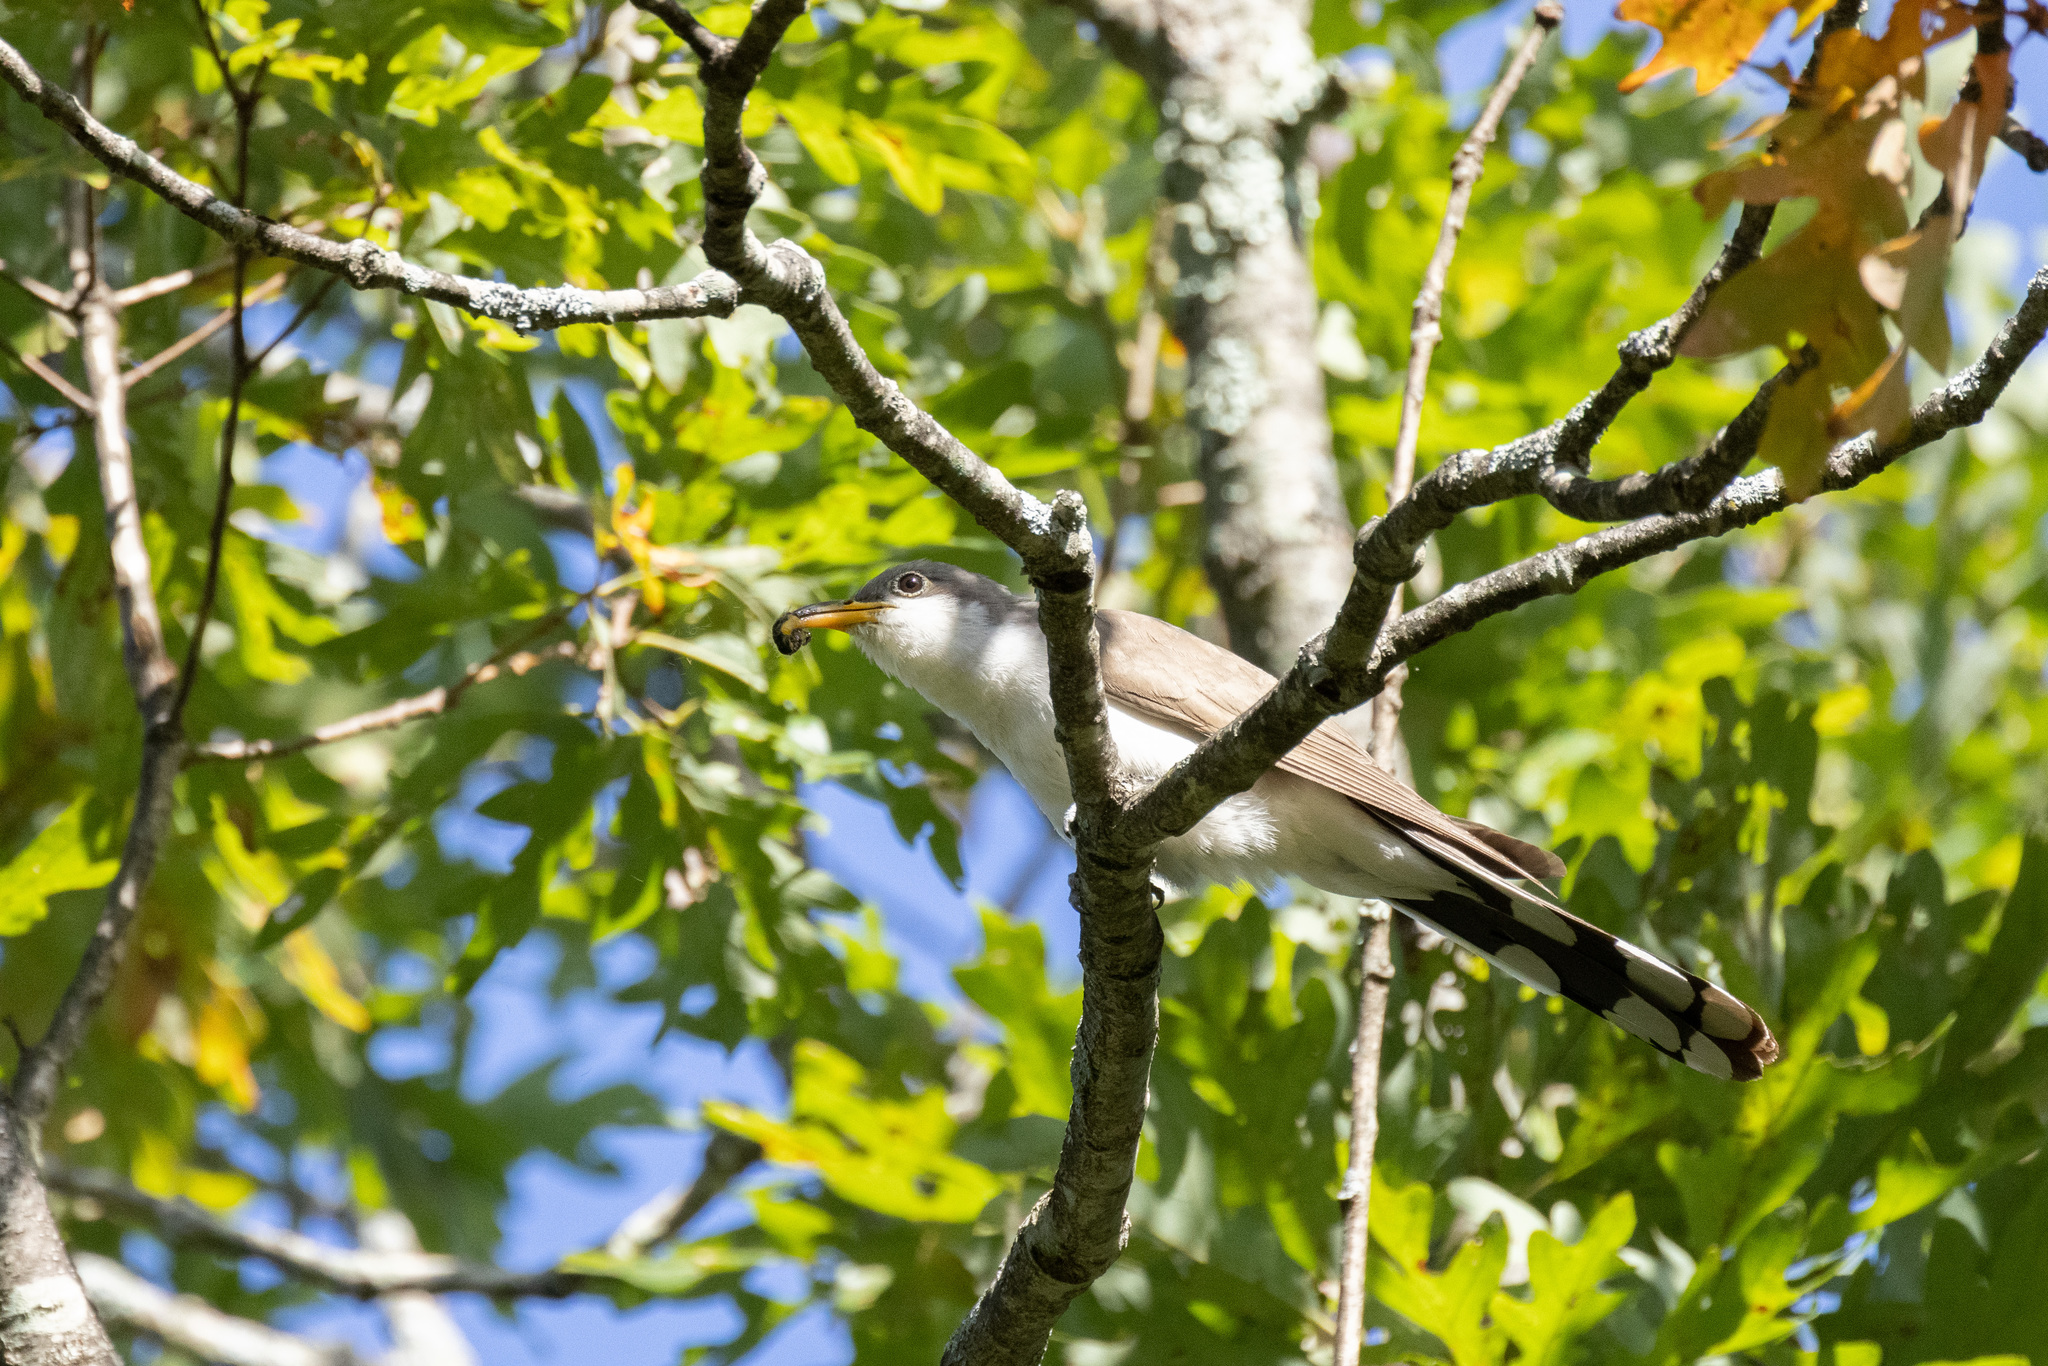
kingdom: Animalia
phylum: Chordata
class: Aves
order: Cuculiformes
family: Cuculidae
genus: Coccyzus
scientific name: Coccyzus americanus
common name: Yellow-billed cuckoo
